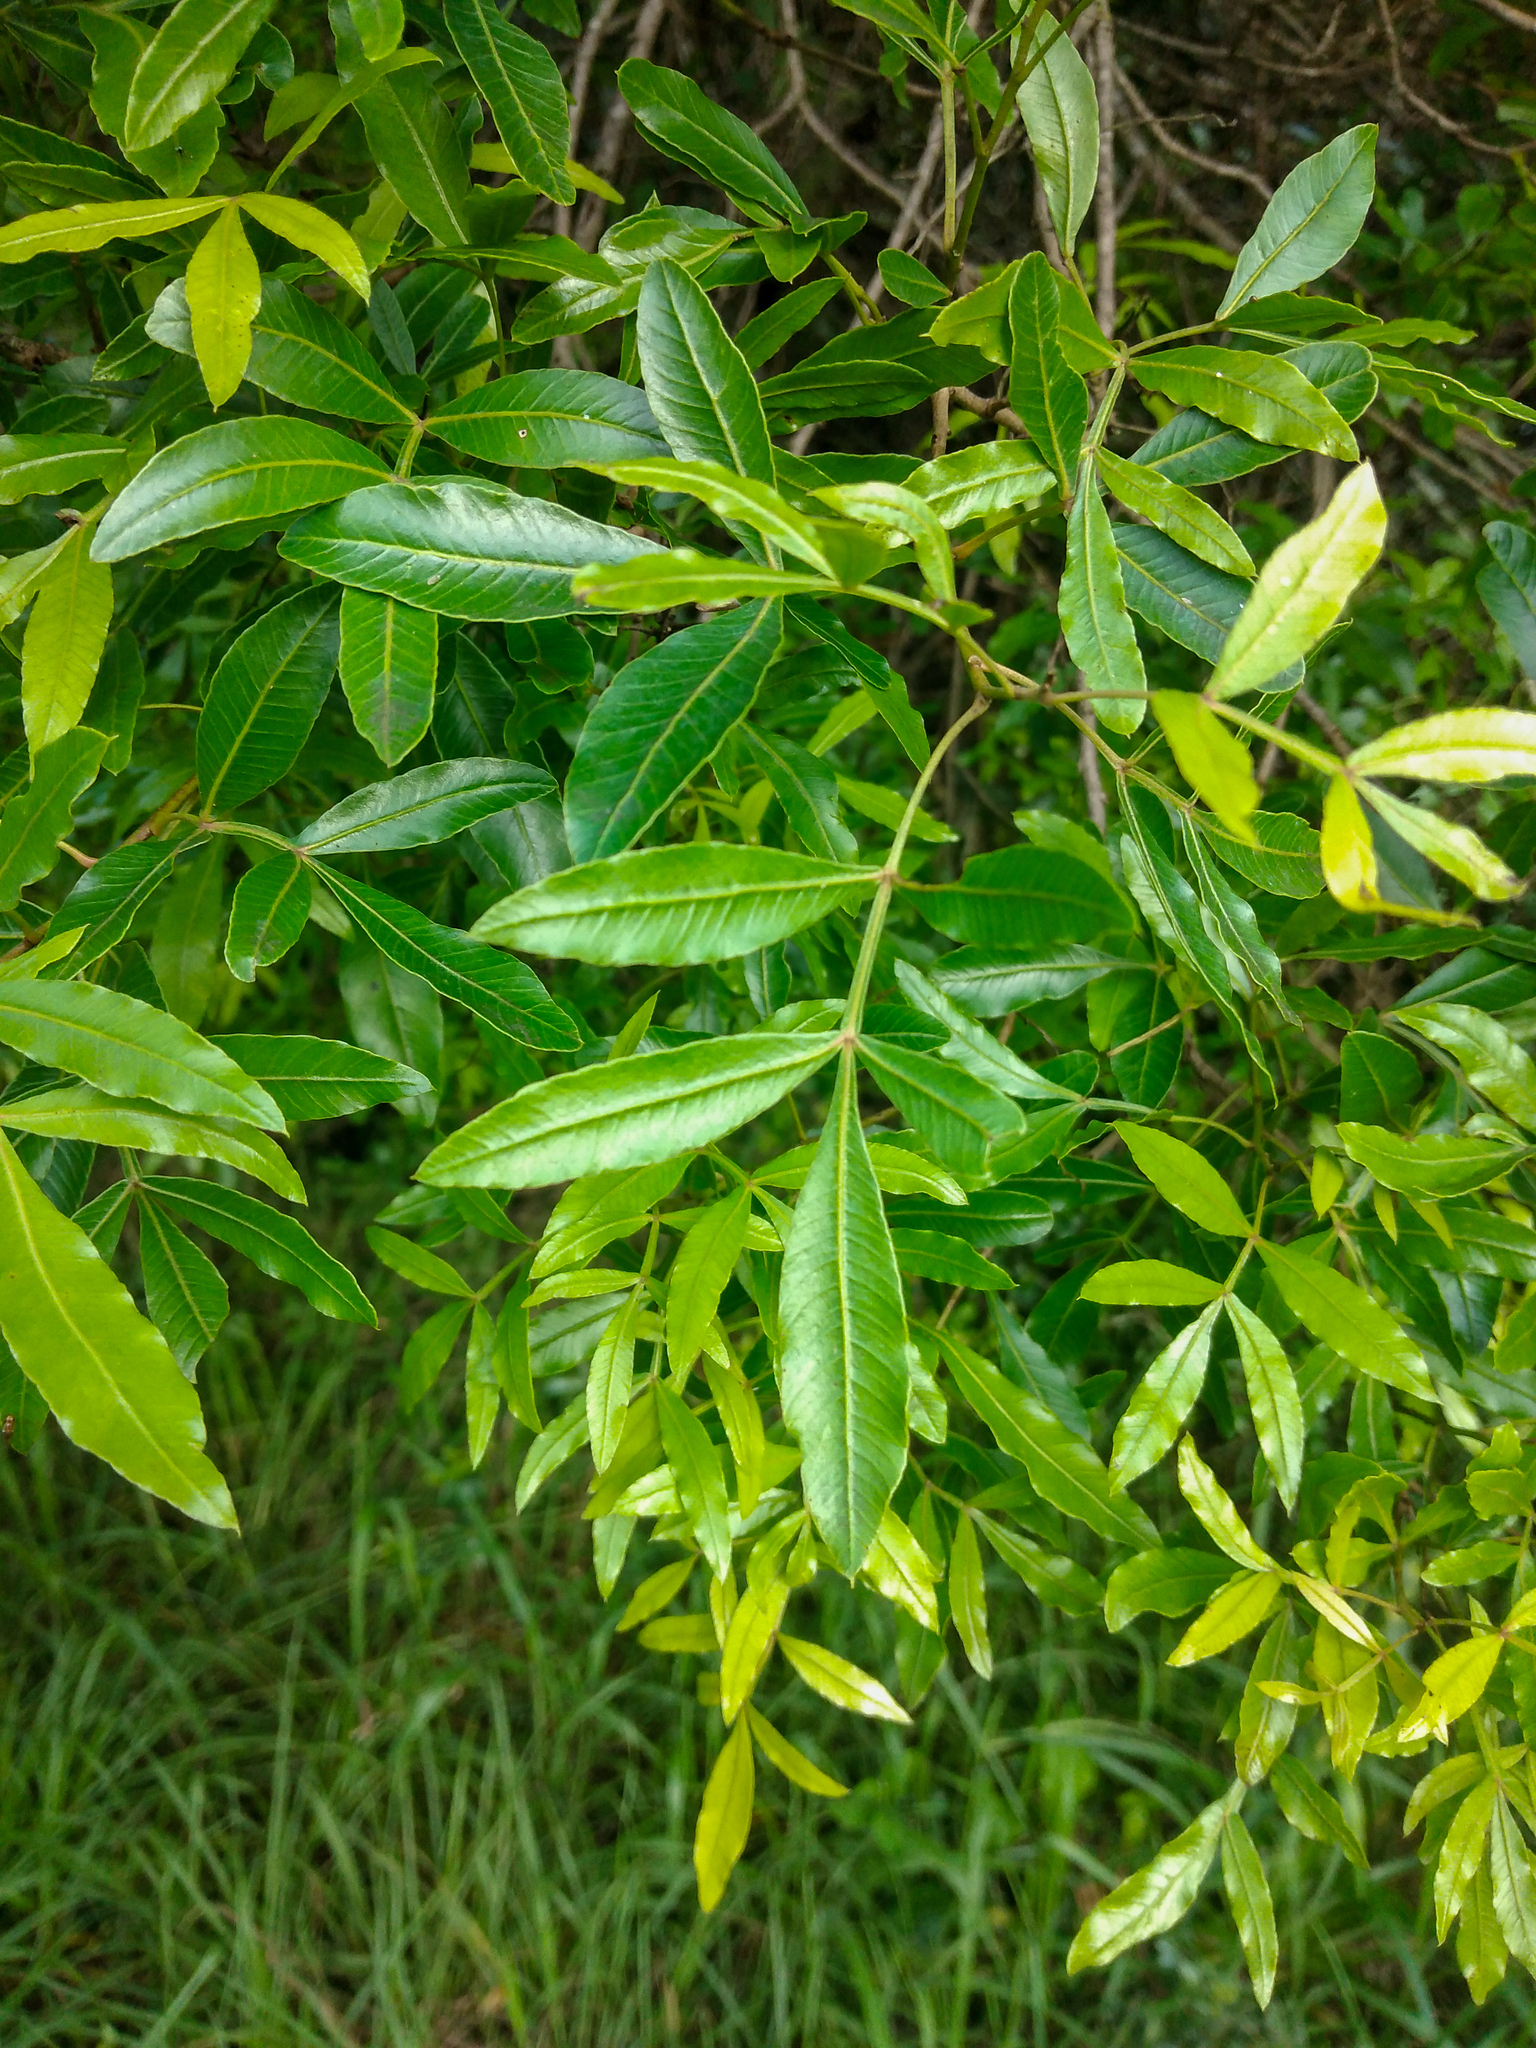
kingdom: Plantae
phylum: Tracheophyta
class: Magnoliopsida
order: Sapindales
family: Anacardiaceae
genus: Lithraea
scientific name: Lithraea molleoides
